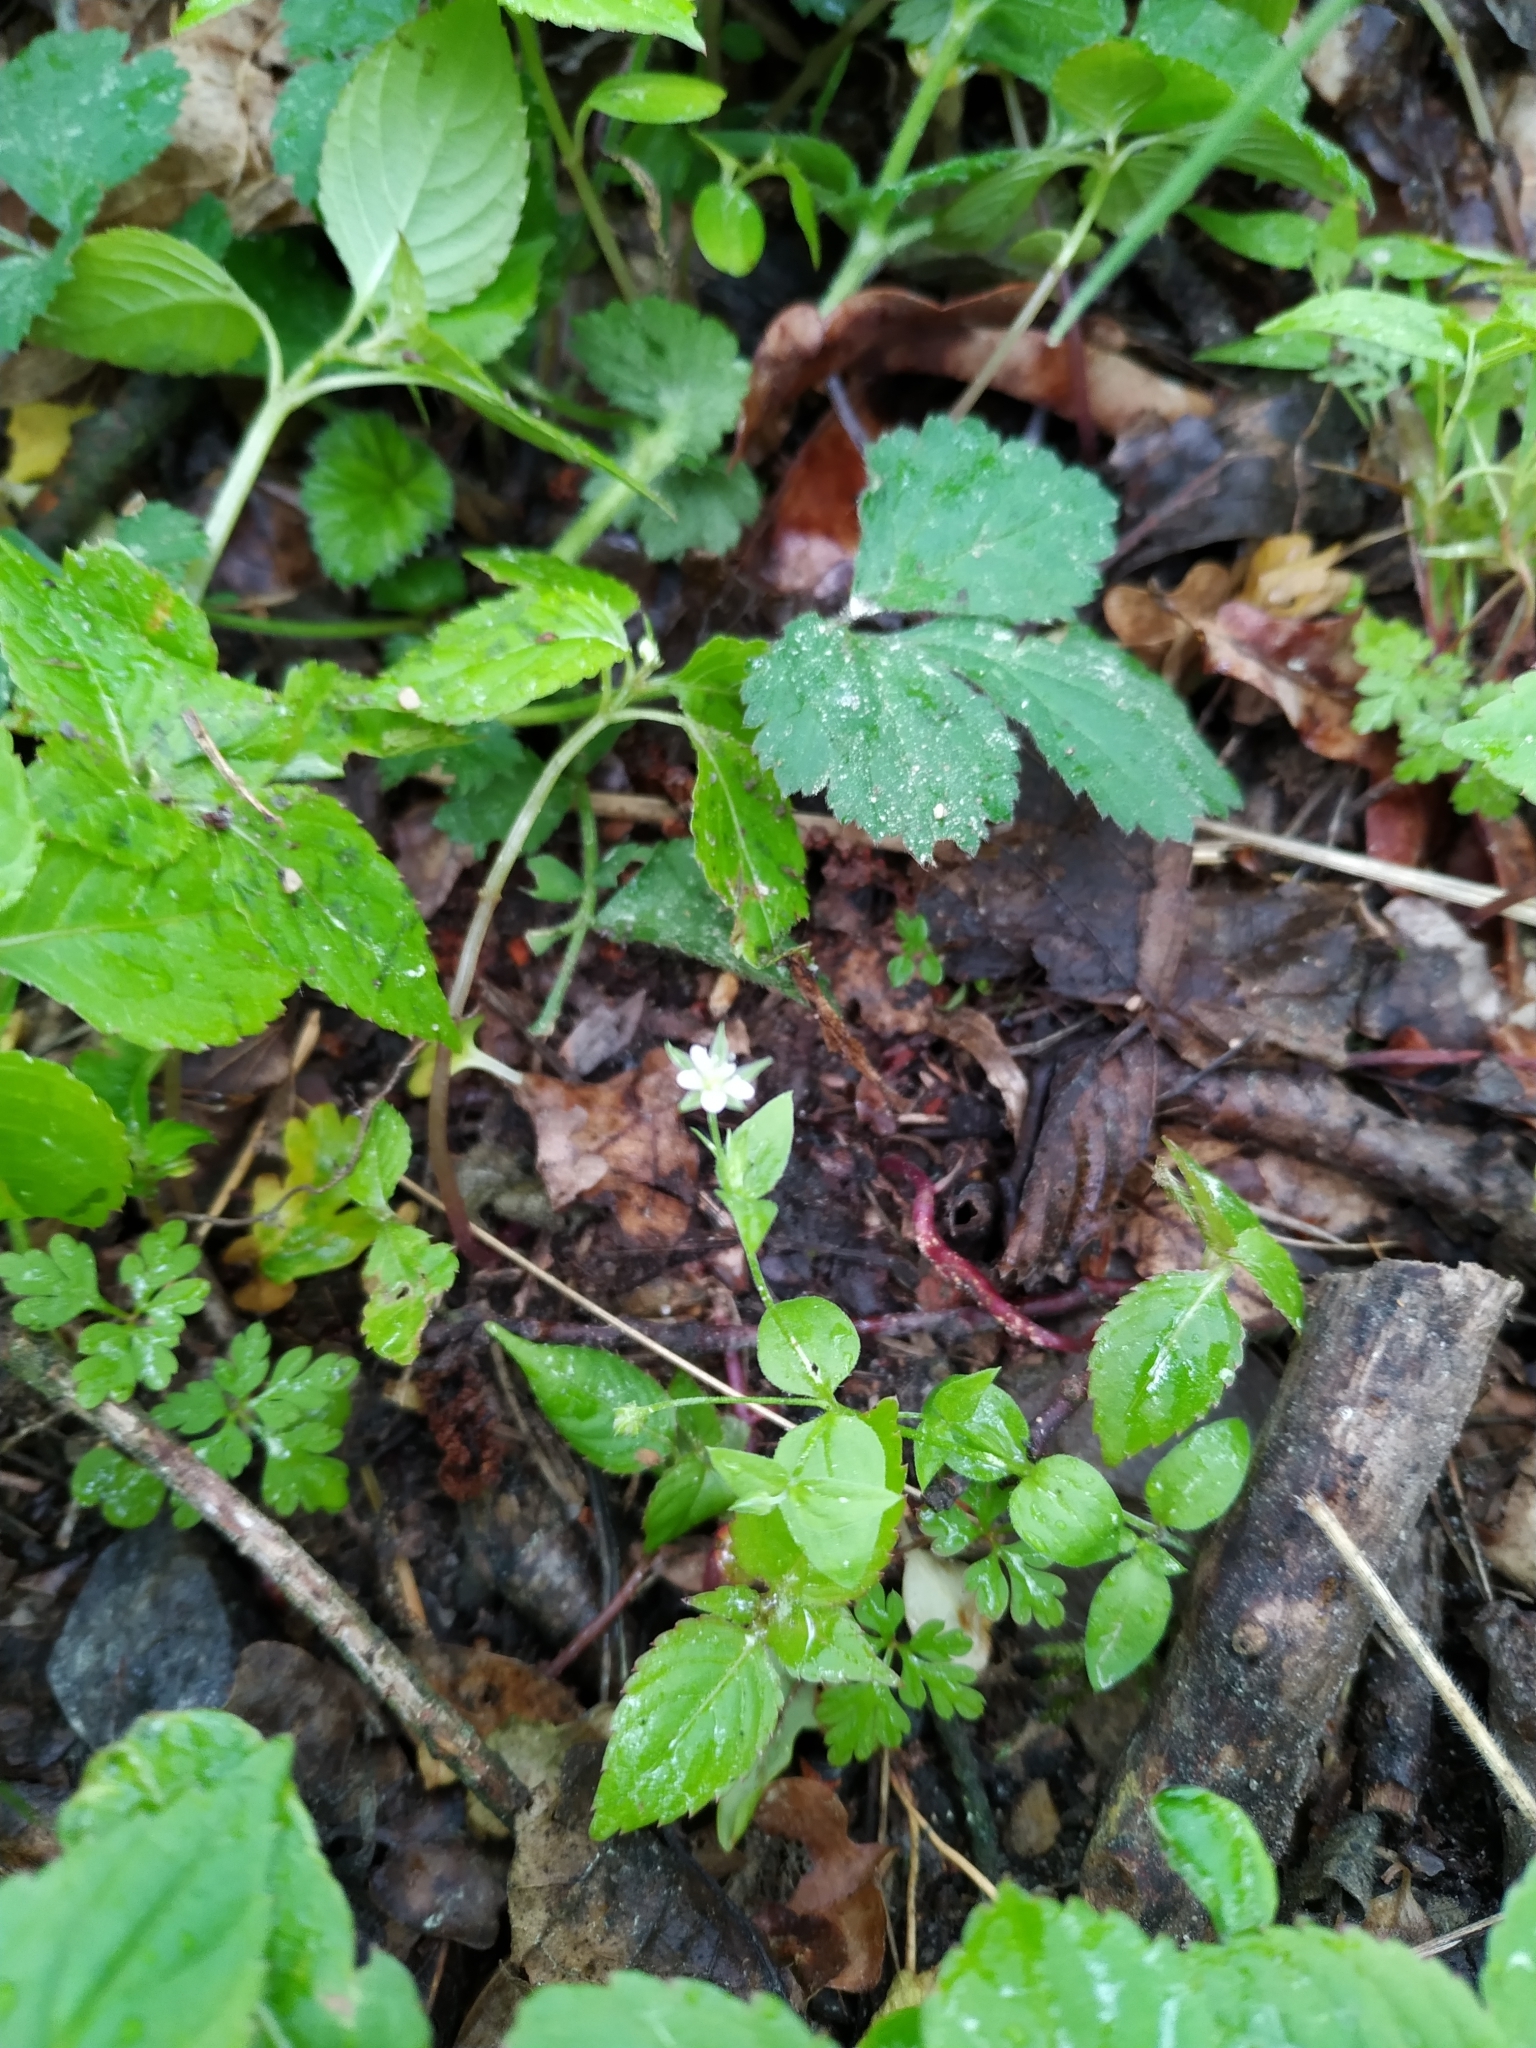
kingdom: Plantae
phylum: Tracheophyta
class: Magnoliopsida
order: Caryophyllales
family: Caryophyllaceae
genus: Stellaria
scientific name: Stellaria media
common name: Common chickweed
